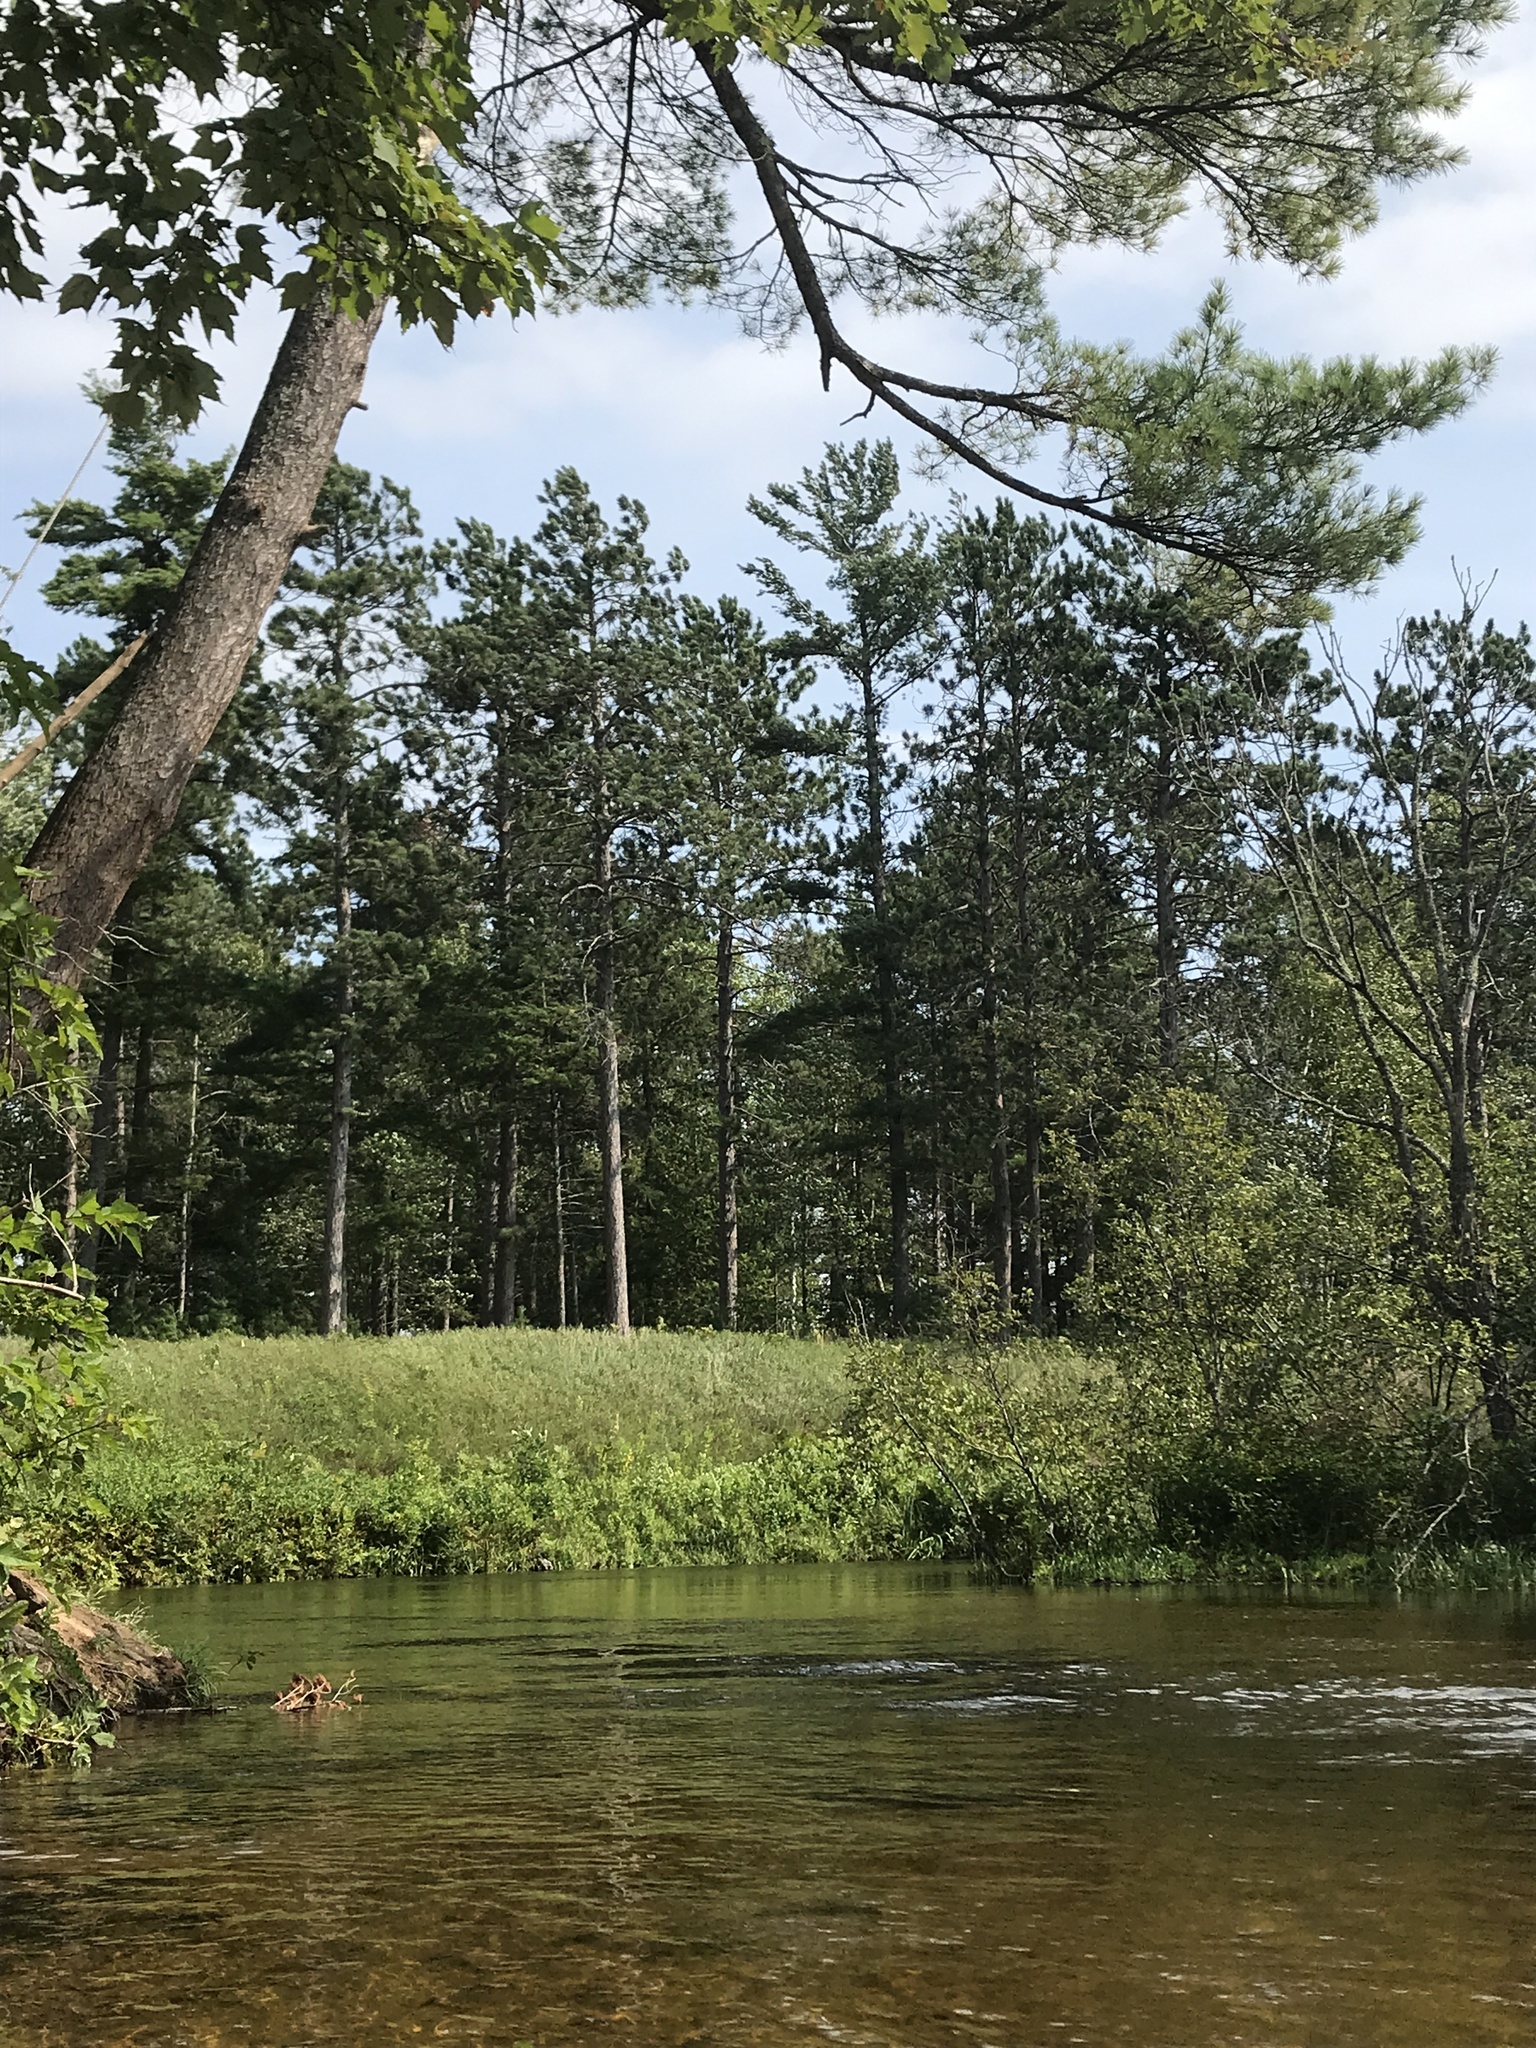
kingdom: Plantae
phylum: Tracheophyta
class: Pinopsida
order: Pinales
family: Pinaceae
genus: Pinus
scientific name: Pinus strobus
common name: Weymouth pine
